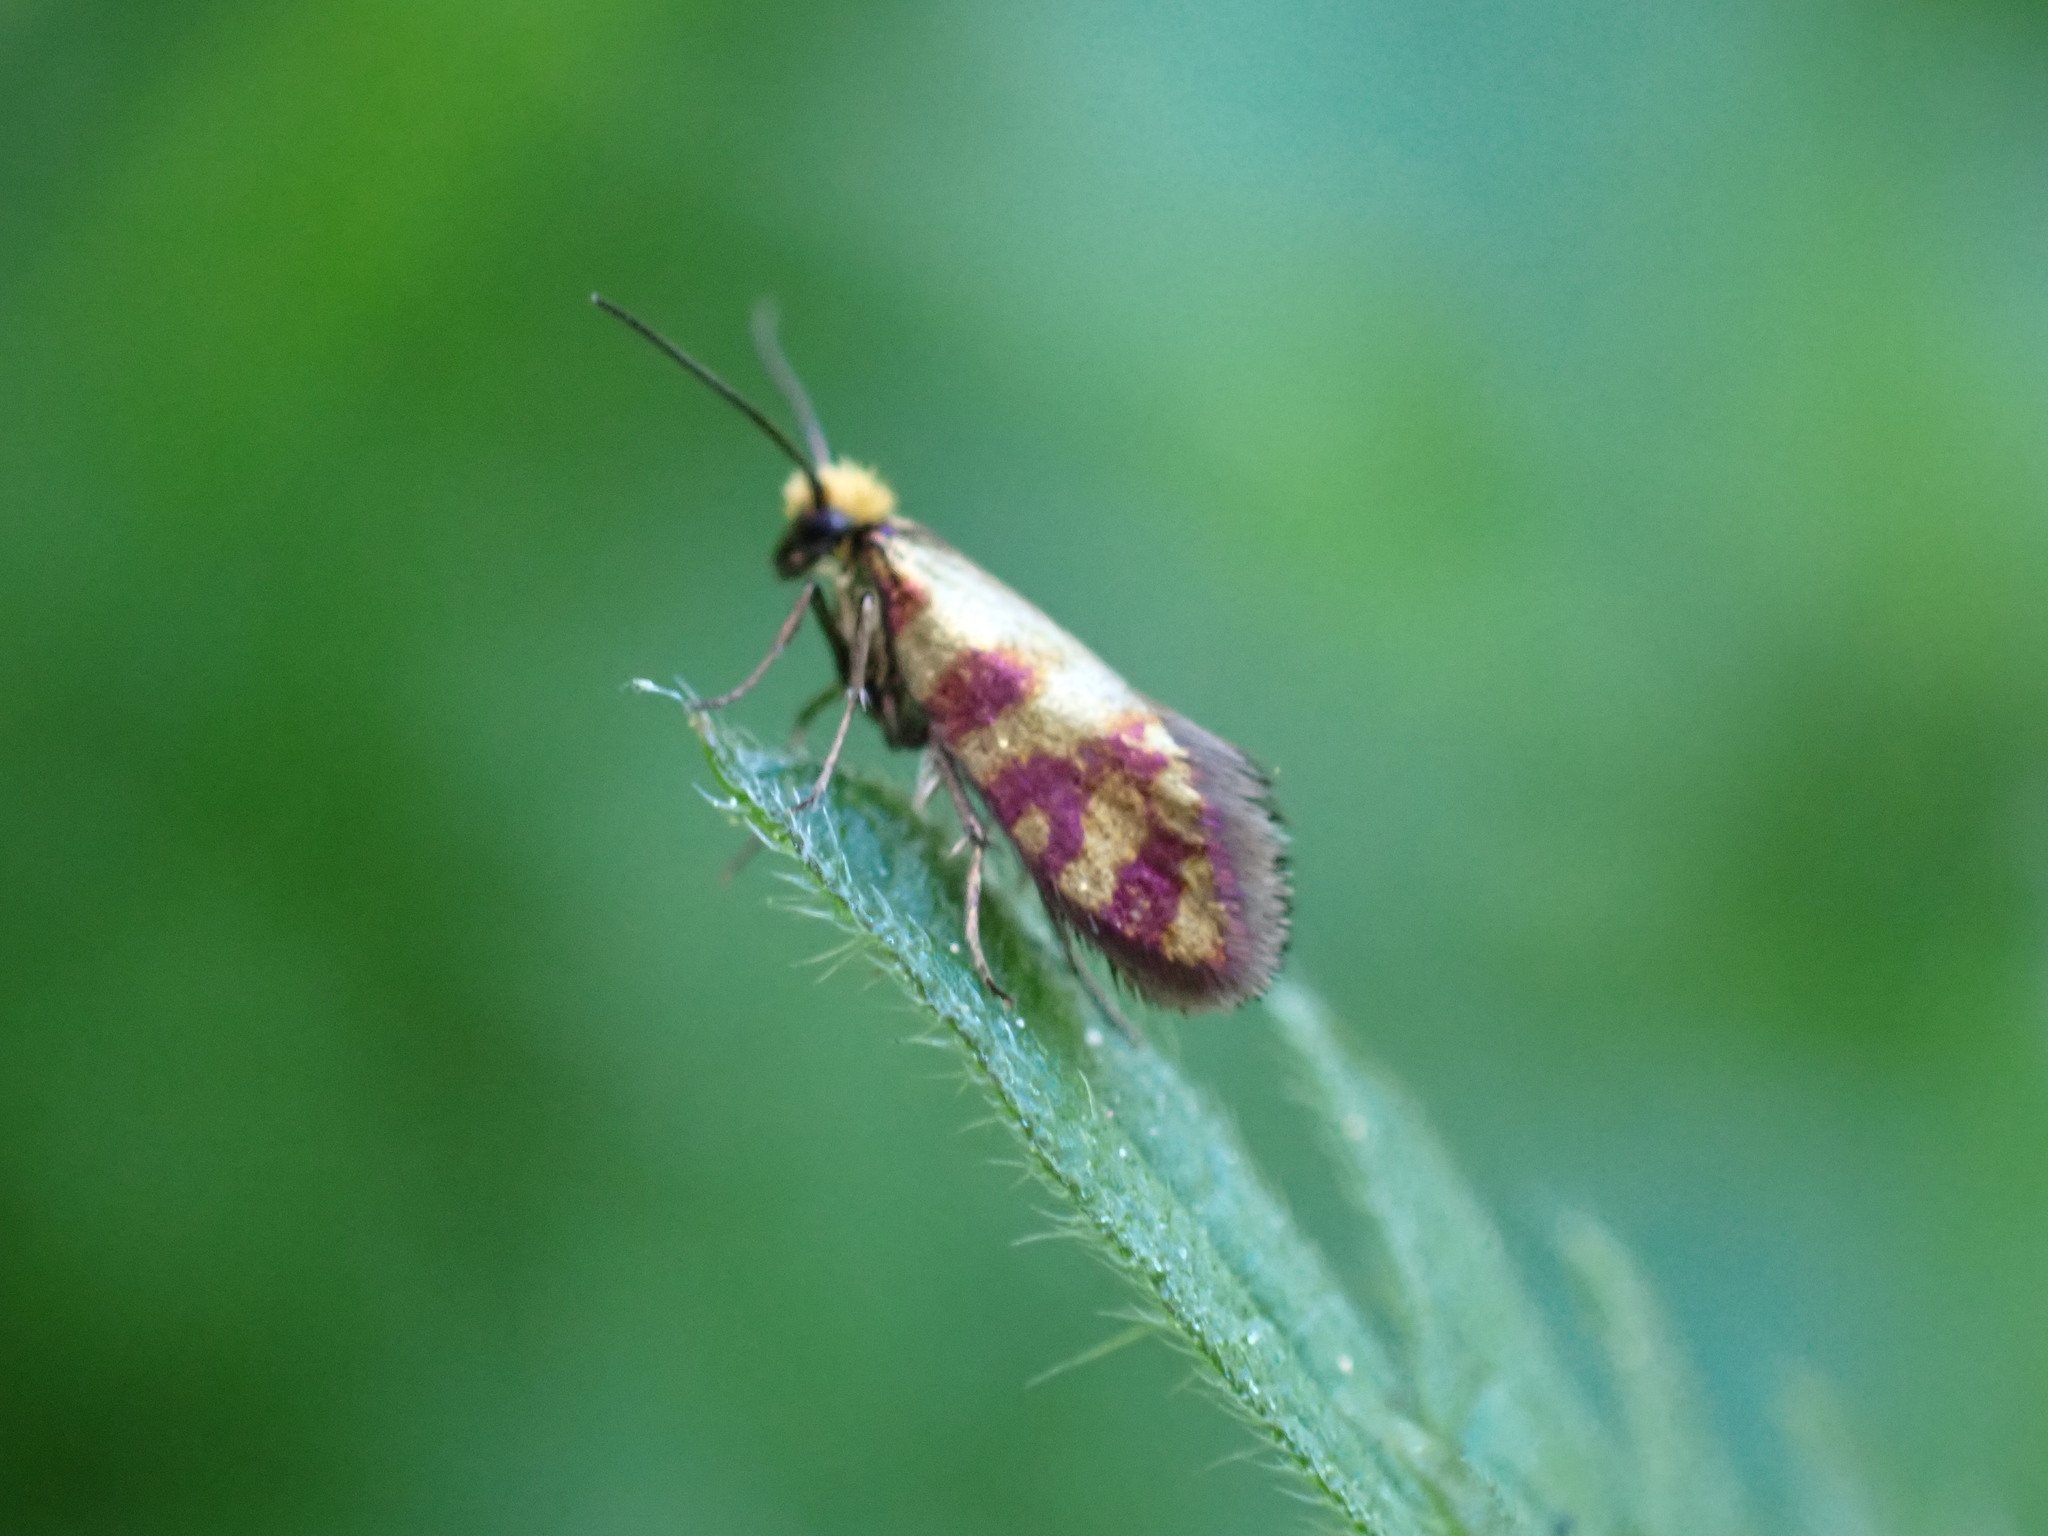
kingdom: Animalia
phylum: Arthropoda
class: Insecta
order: Lepidoptera
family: Micropterigidae
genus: Micropterix
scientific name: Micropterix tunbergella
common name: Red-barred gold
